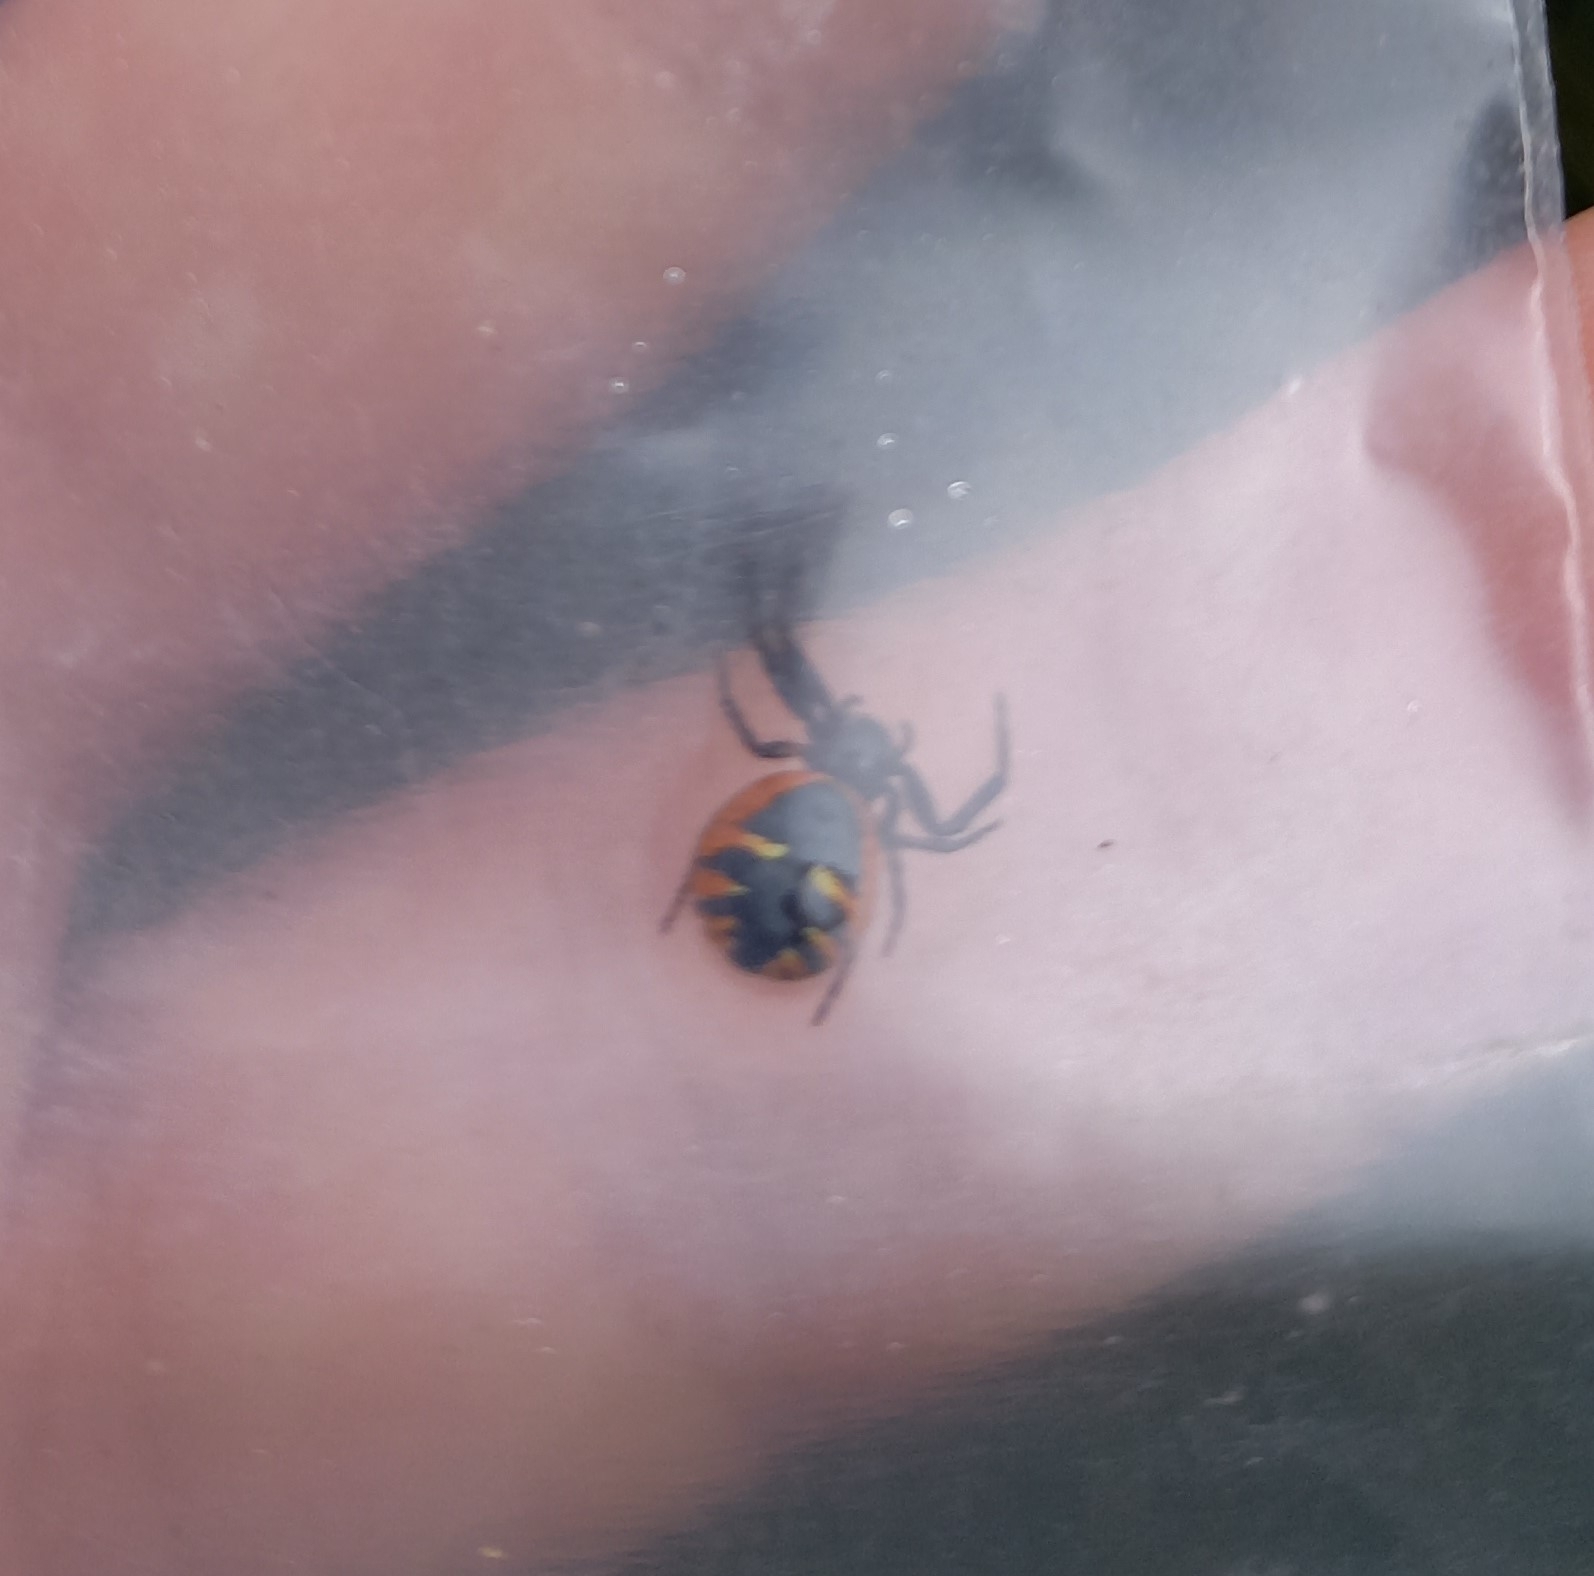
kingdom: Animalia
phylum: Arthropoda
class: Arachnida
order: Araneae
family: Thomisidae
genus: Synema
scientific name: Synema globosum
